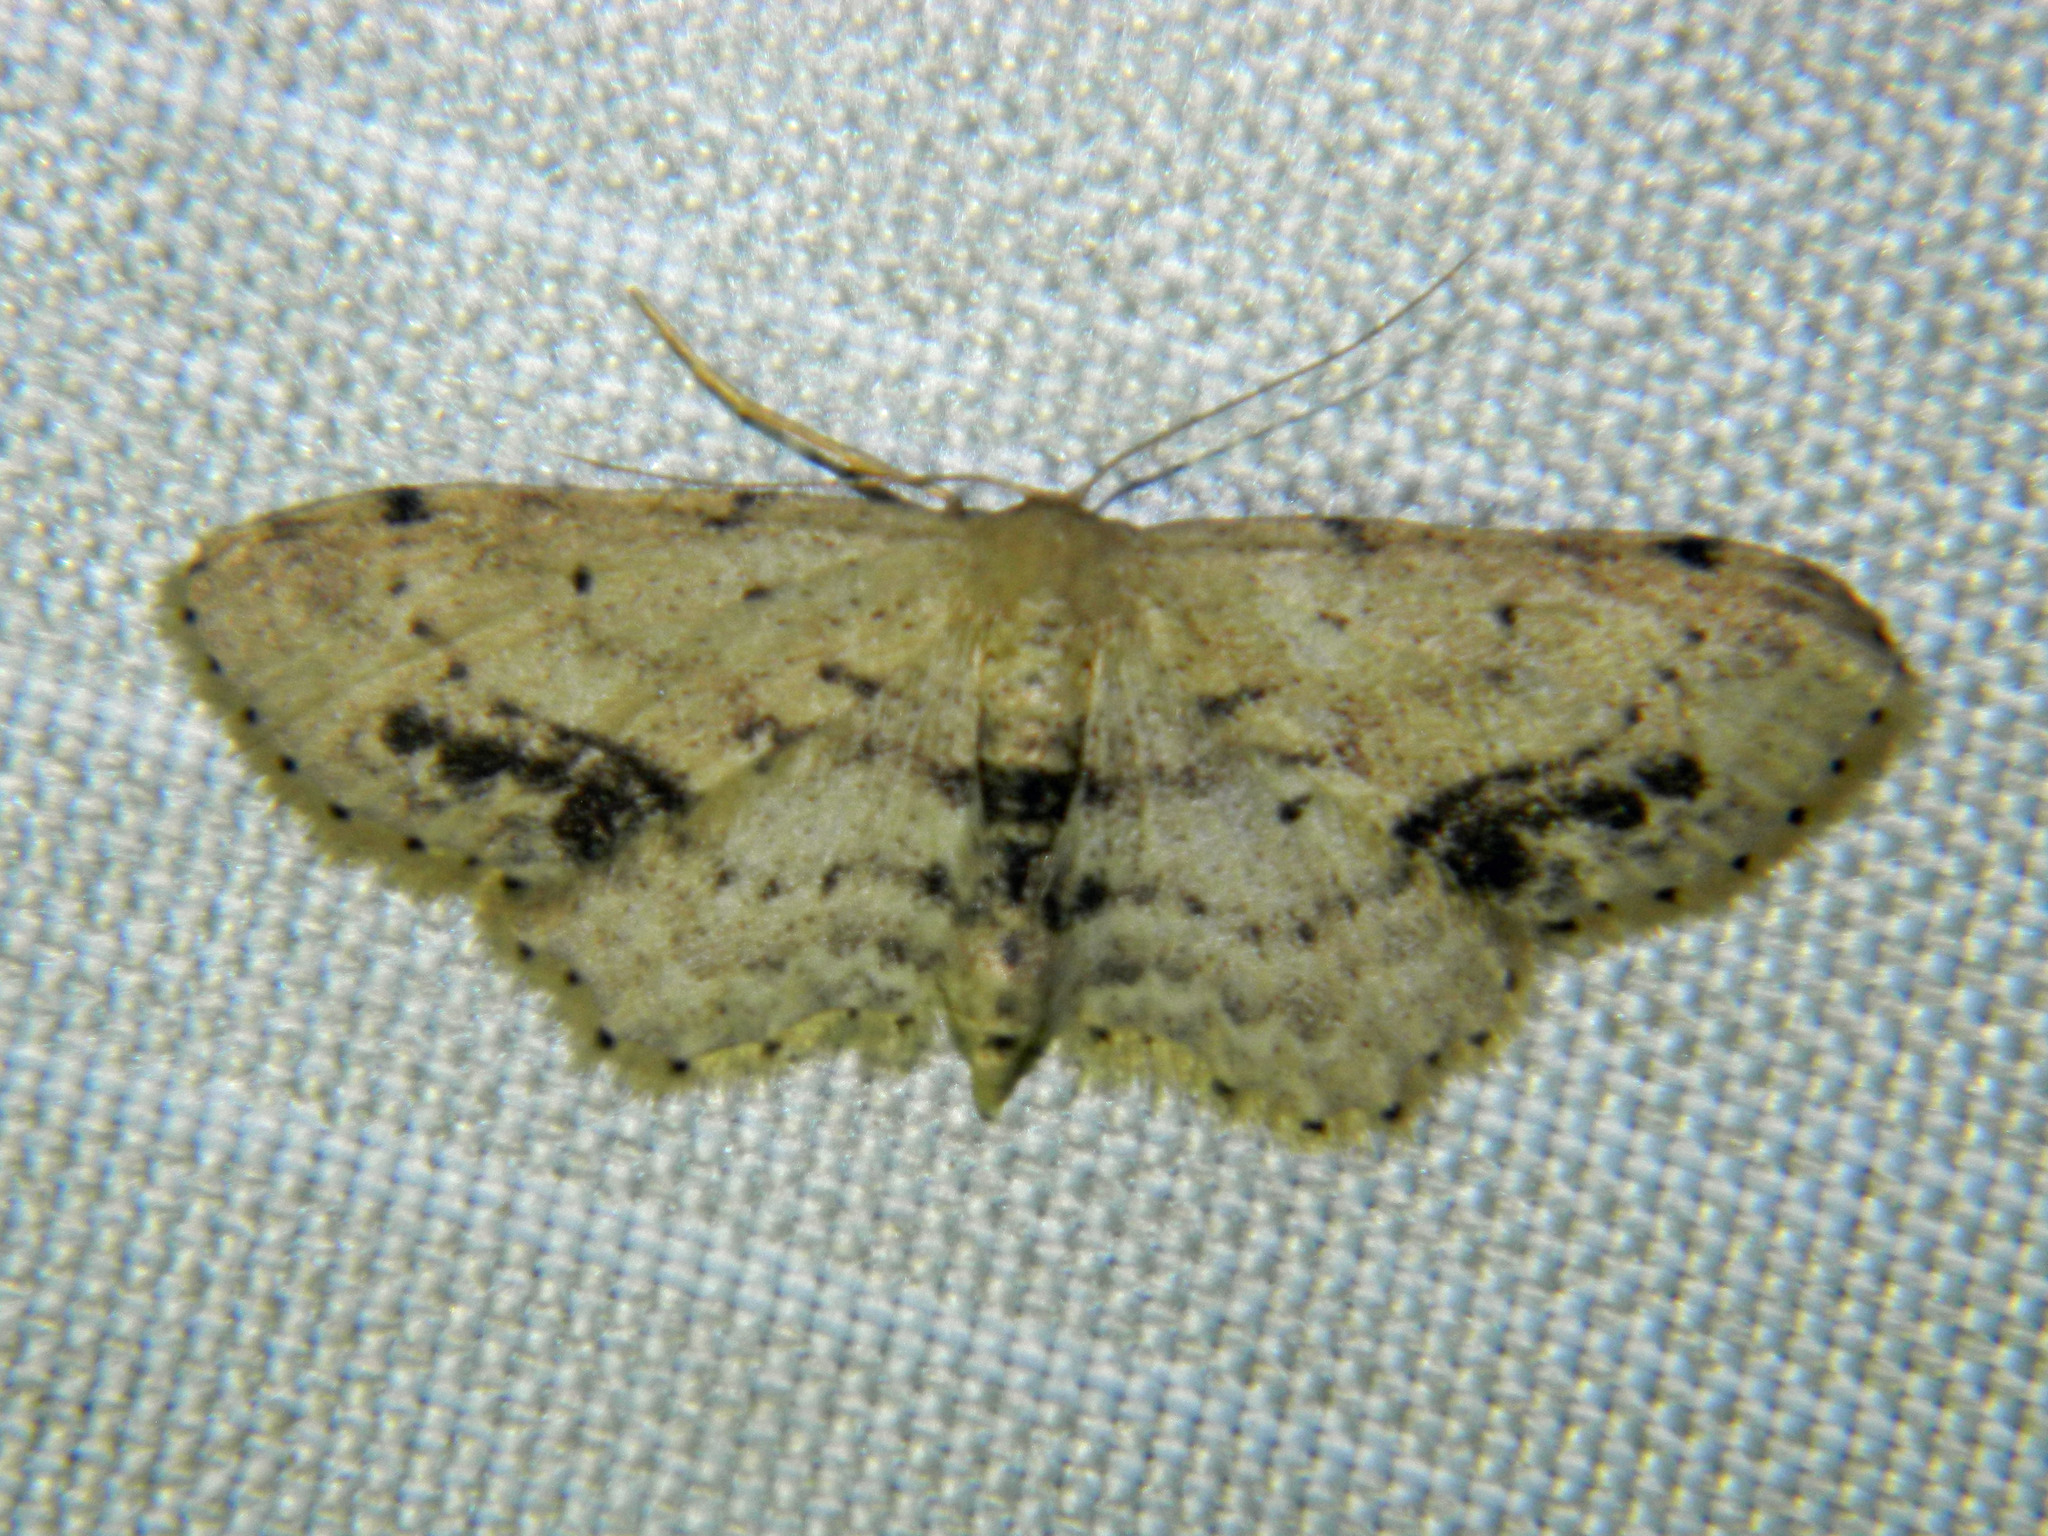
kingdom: Animalia
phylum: Arthropoda
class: Insecta
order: Lepidoptera
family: Geometridae
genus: Idaea
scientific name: Idaea dimidiata
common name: Single-dotted wave
